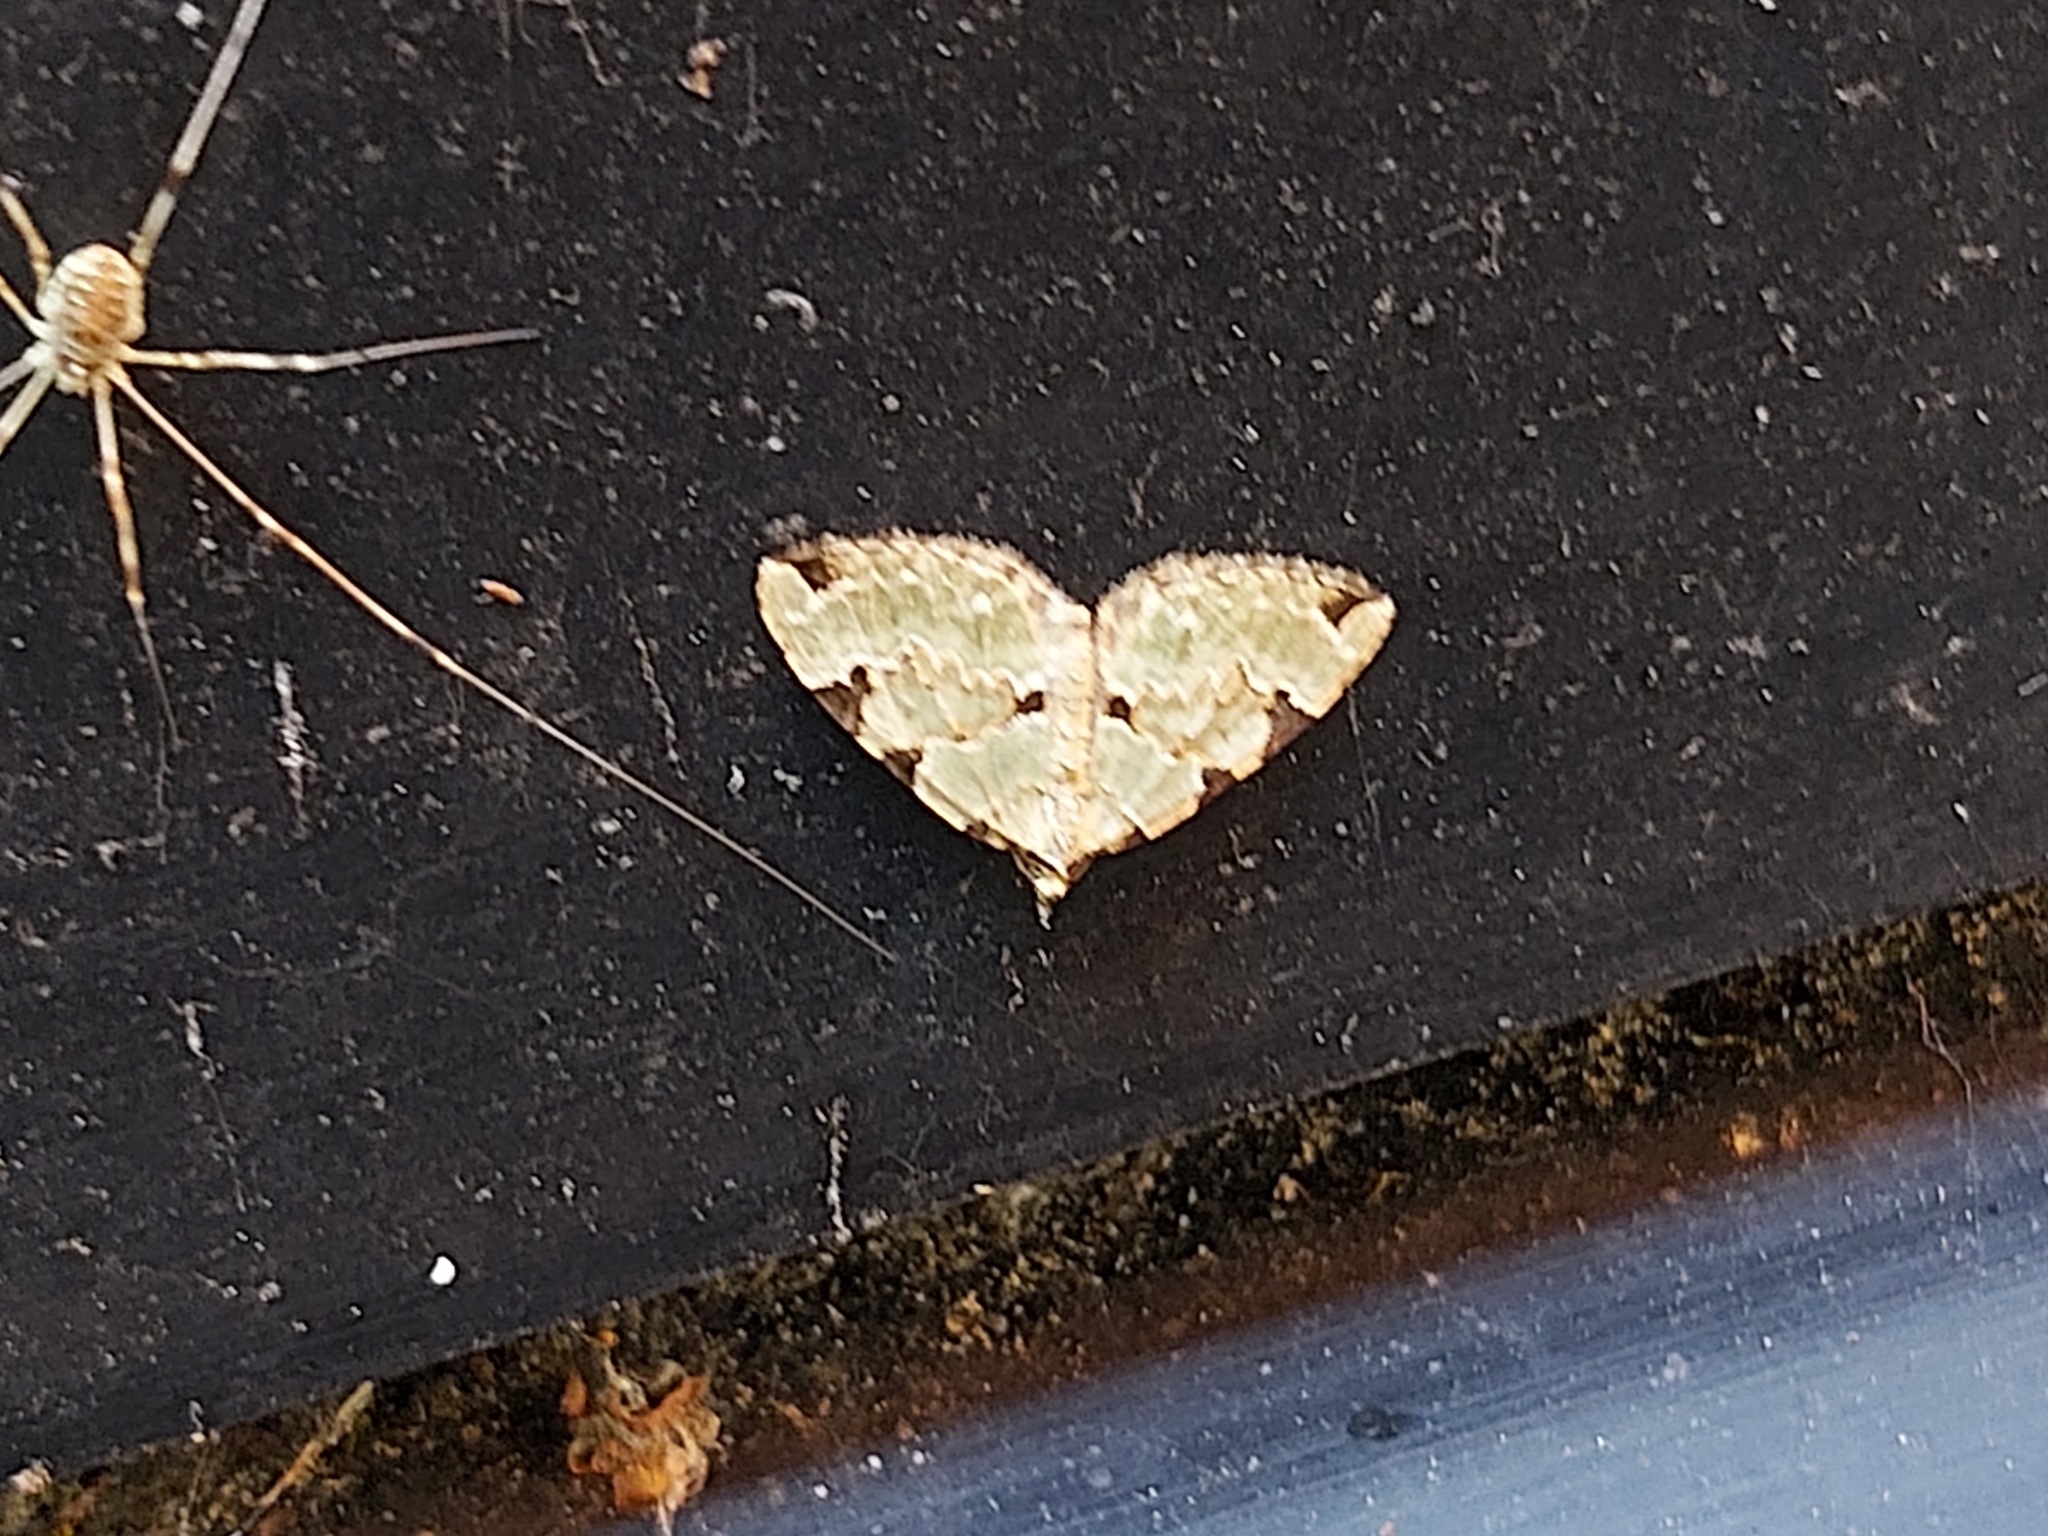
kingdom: Animalia
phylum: Arthropoda
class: Insecta
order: Lepidoptera
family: Geometridae
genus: Colostygia
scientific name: Colostygia pectinataria
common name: Green carpet
